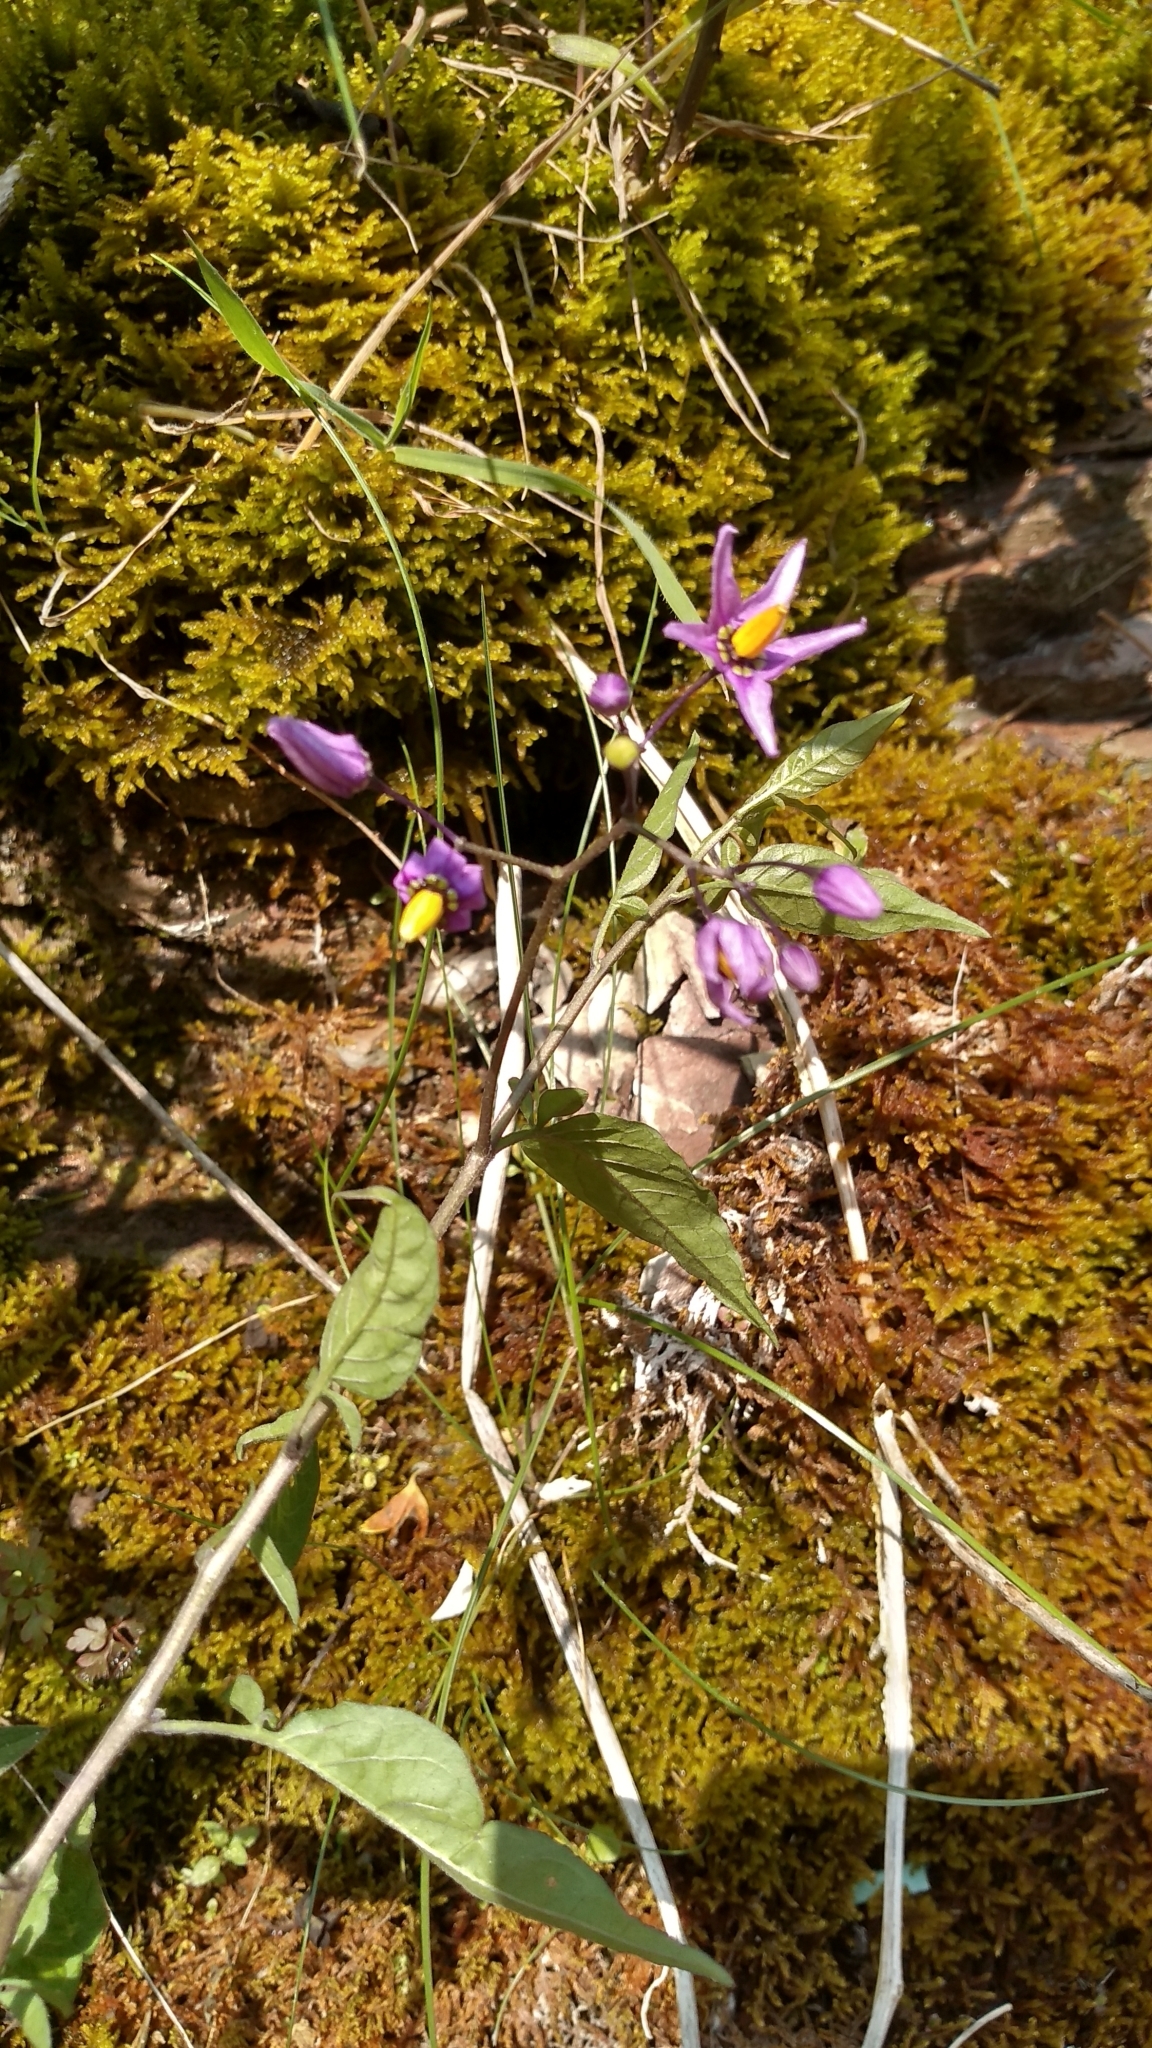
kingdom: Plantae
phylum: Tracheophyta
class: Magnoliopsida
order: Solanales
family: Solanaceae
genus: Solanum
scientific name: Solanum dulcamara
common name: Climbing nightshade
